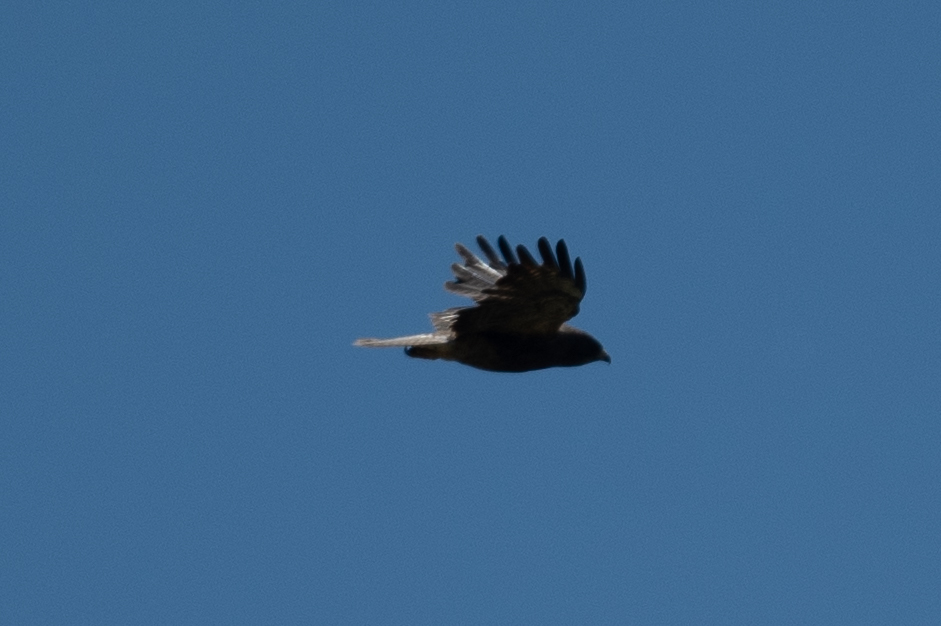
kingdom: Animalia
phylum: Chordata
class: Aves
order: Accipitriformes
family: Accipitridae
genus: Buteo
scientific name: Buteo swainsoni
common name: Swainson's hawk
